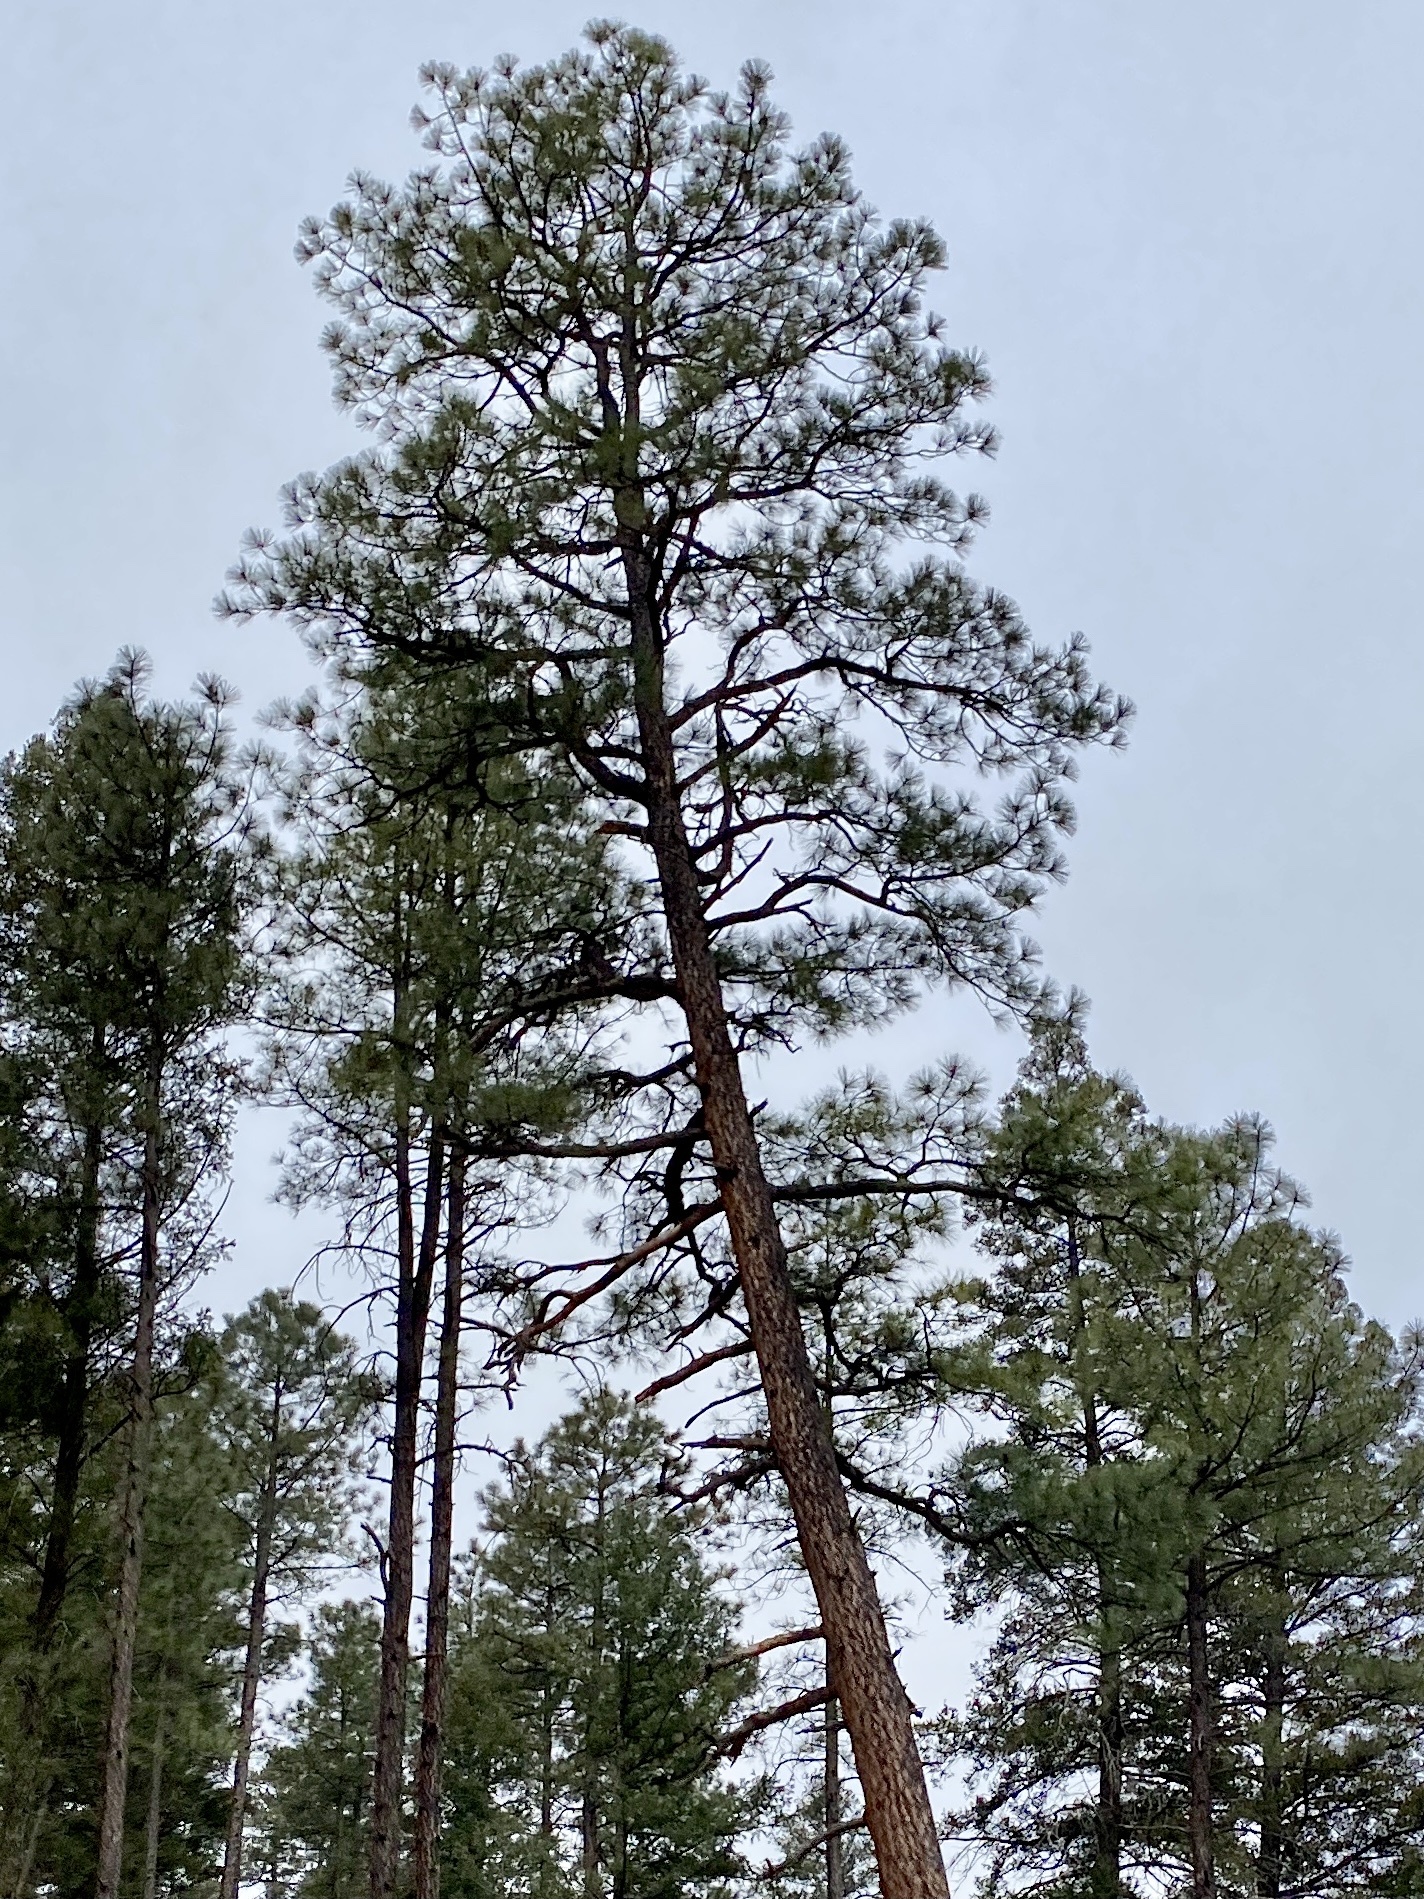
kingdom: Plantae
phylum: Tracheophyta
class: Pinopsida
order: Pinales
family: Pinaceae
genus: Pinus
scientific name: Pinus ponderosa
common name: Western yellow-pine
